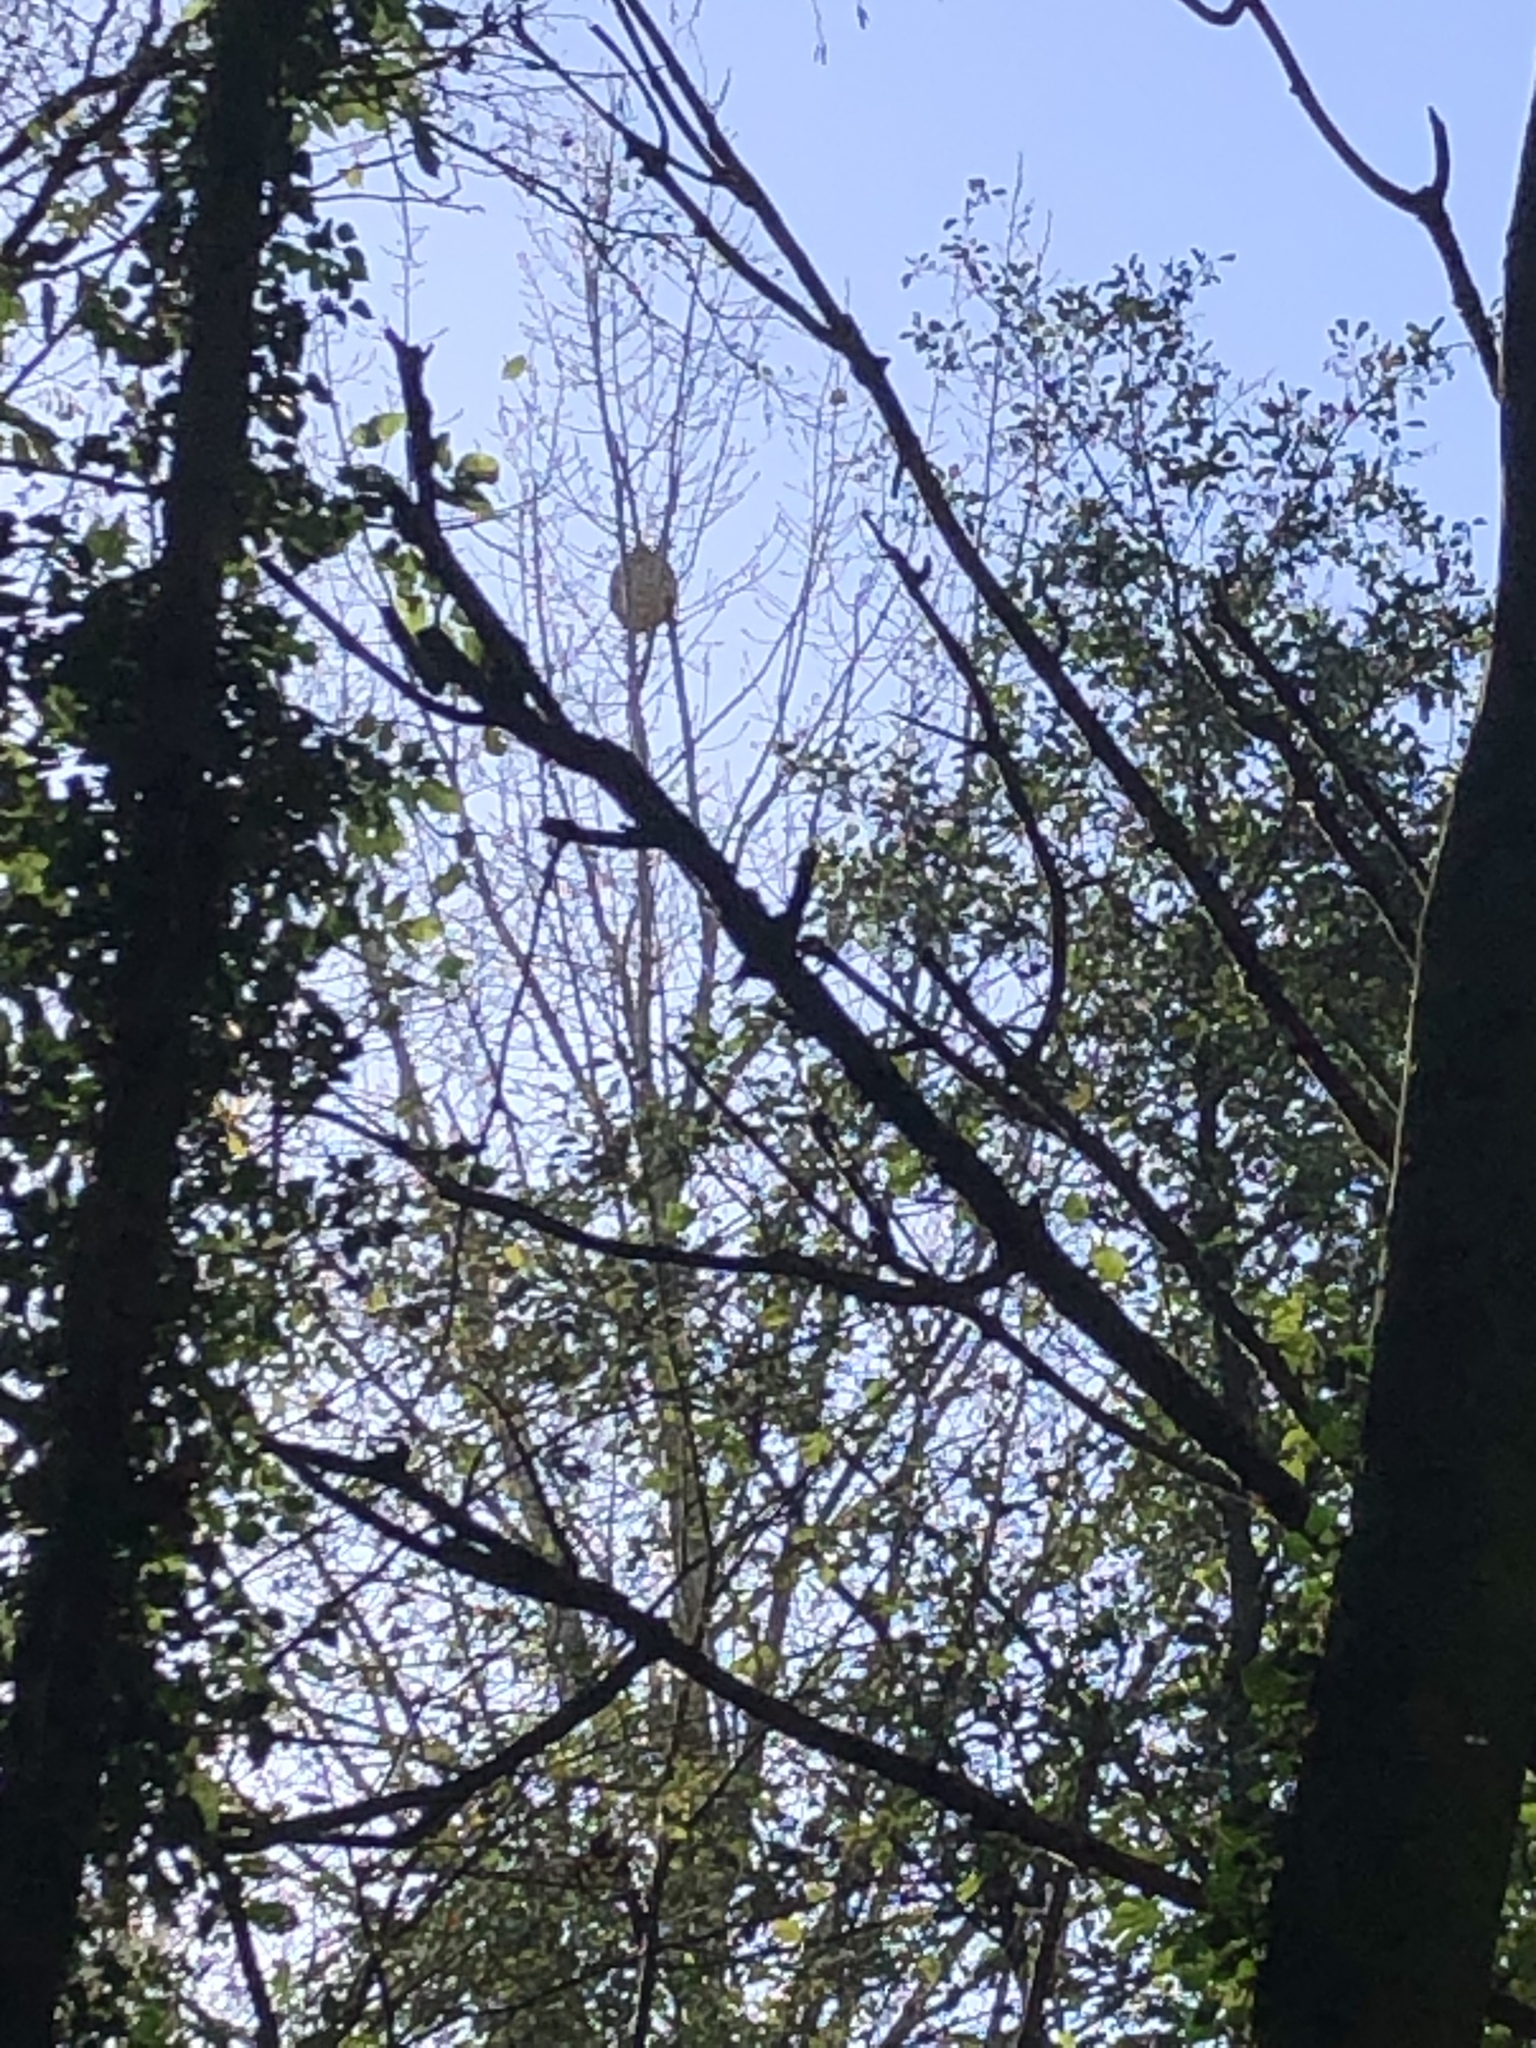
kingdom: Animalia
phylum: Arthropoda
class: Insecta
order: Hymenoptera
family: Vespidae
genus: Vespa
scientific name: Vespa velutina
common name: Asian hornet
